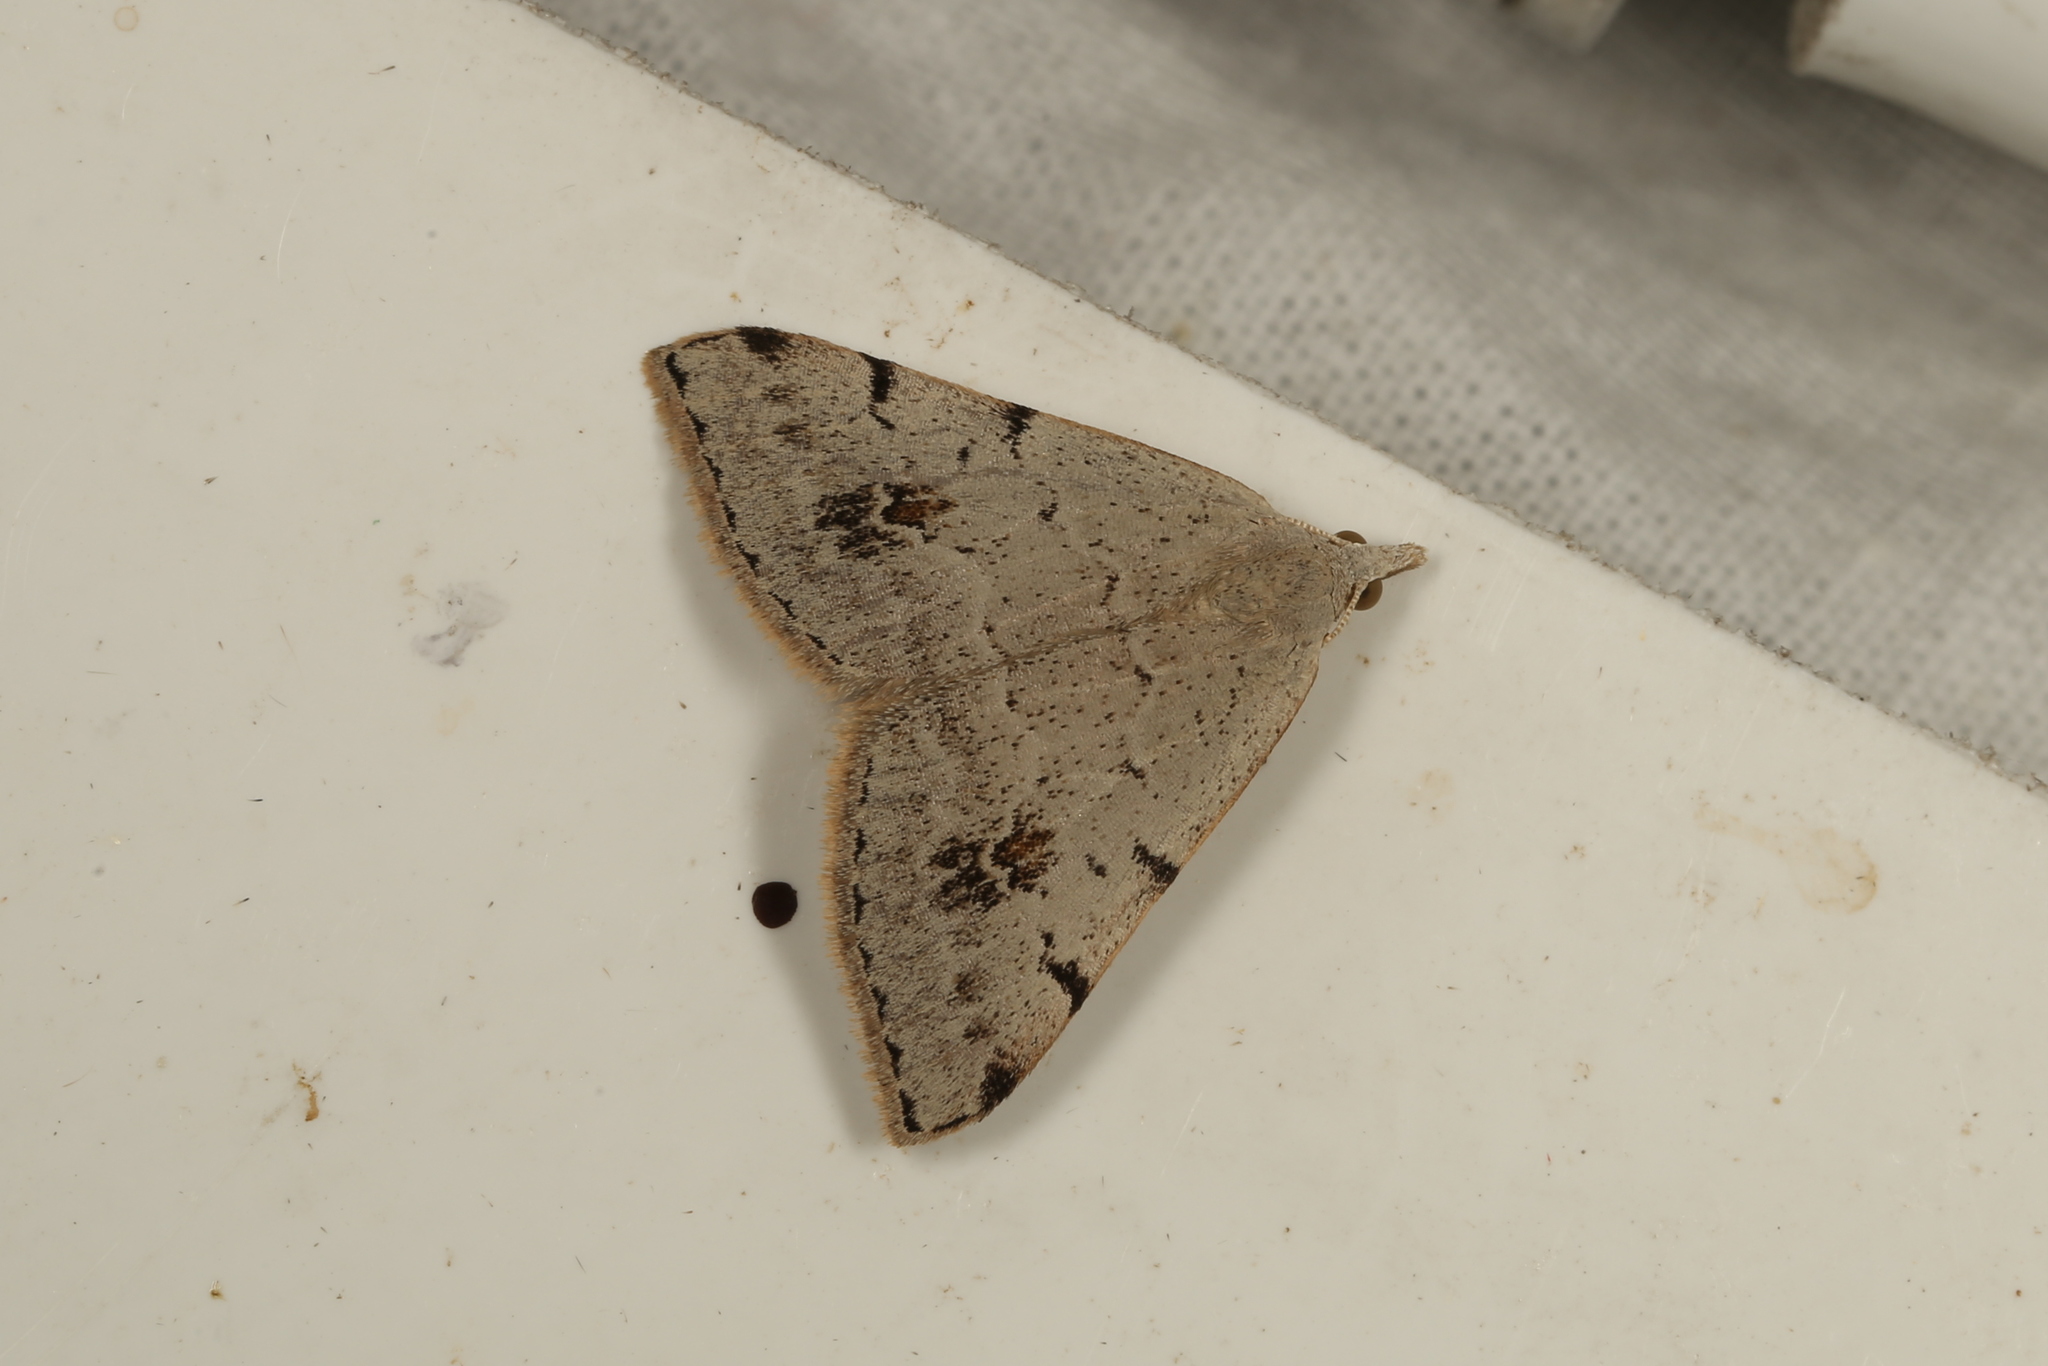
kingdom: Animalia
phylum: Arthropoda
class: Insecta
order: Lepidoptera
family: Geometridae
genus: Dichromodes
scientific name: Dichromodes estigmaria
